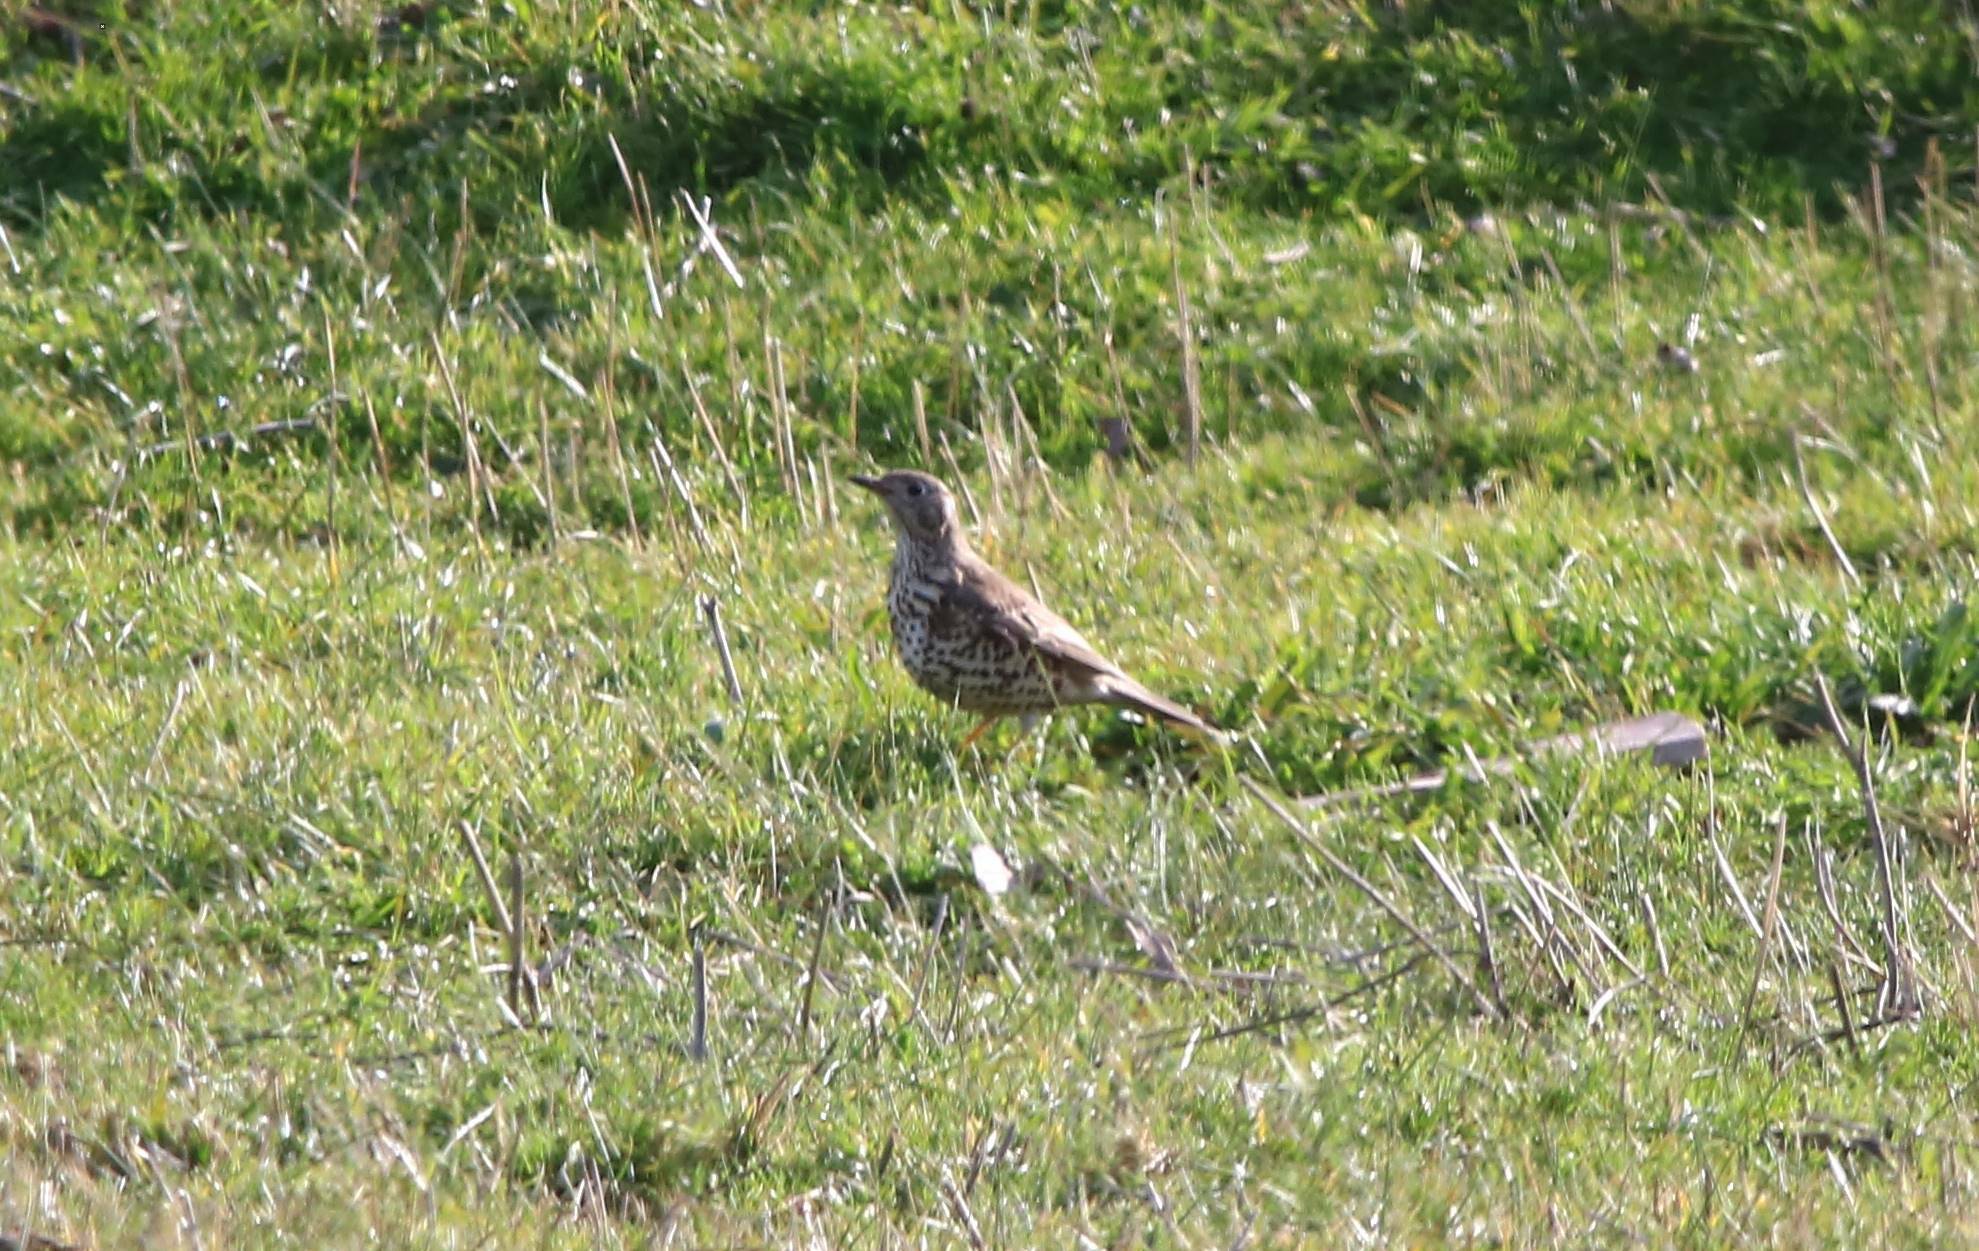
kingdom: Animalia
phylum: Chordata
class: Aves
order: Passeriformes
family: Turdidae
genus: Turdus
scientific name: Turdus viscivorus
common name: Mistle thrush
